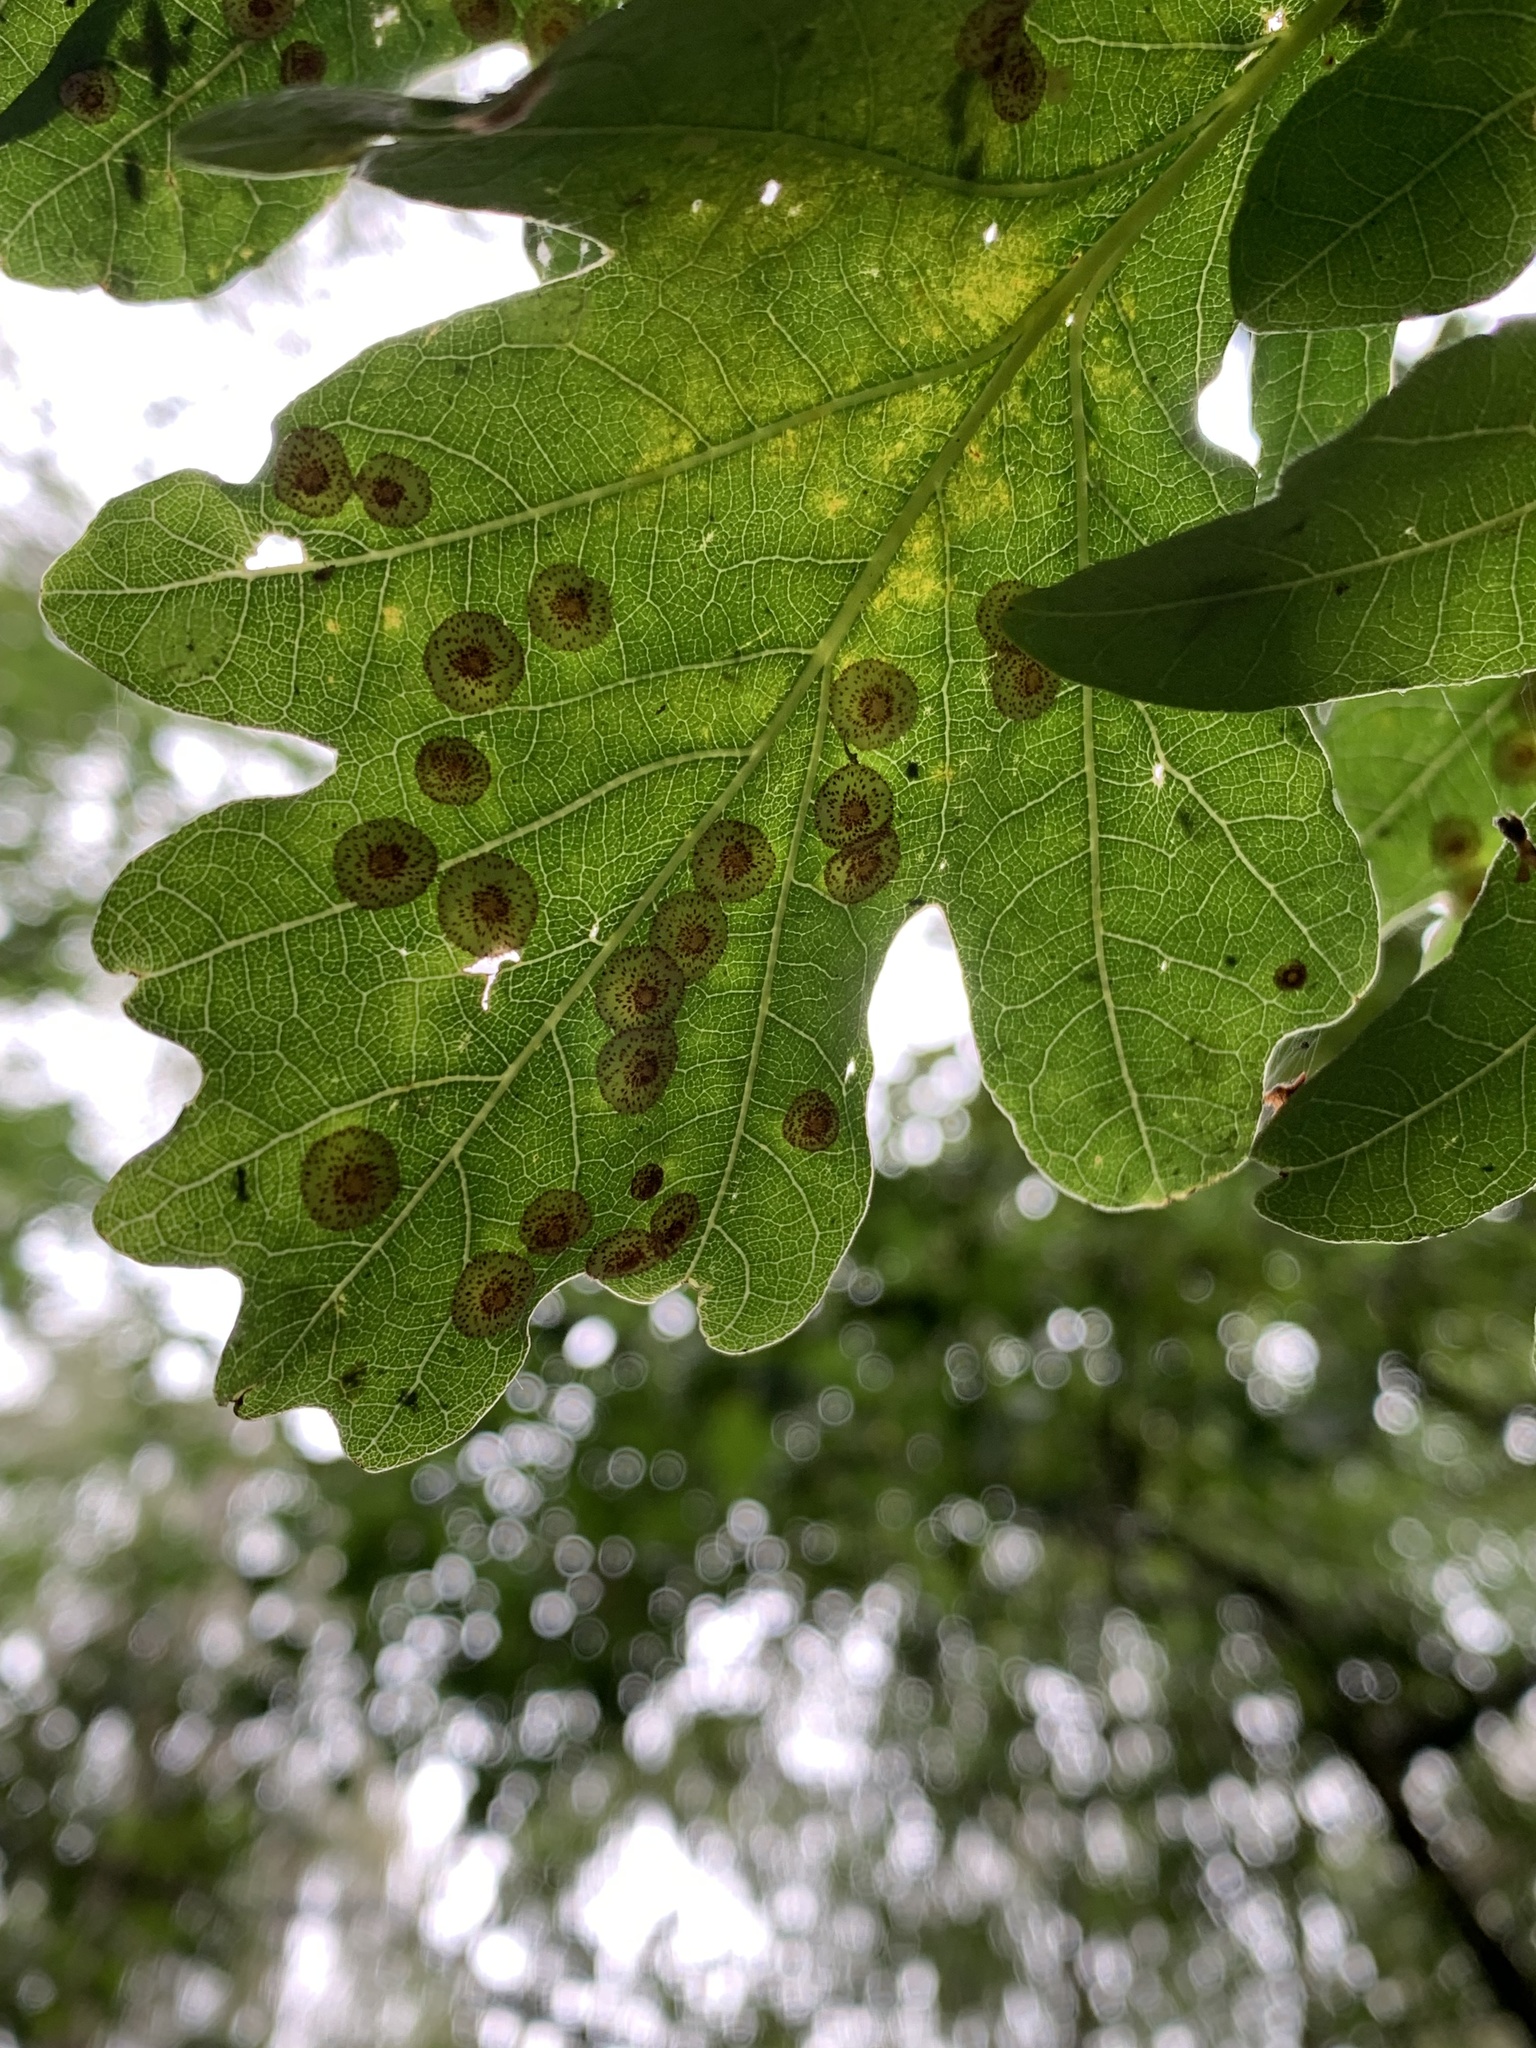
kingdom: Animalia
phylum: Arthropoda
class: Insecta
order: Hymenoptera
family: Cynipidae
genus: Neuroterus
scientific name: Neuroterus quercusbaccarum
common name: Common spangle gall
